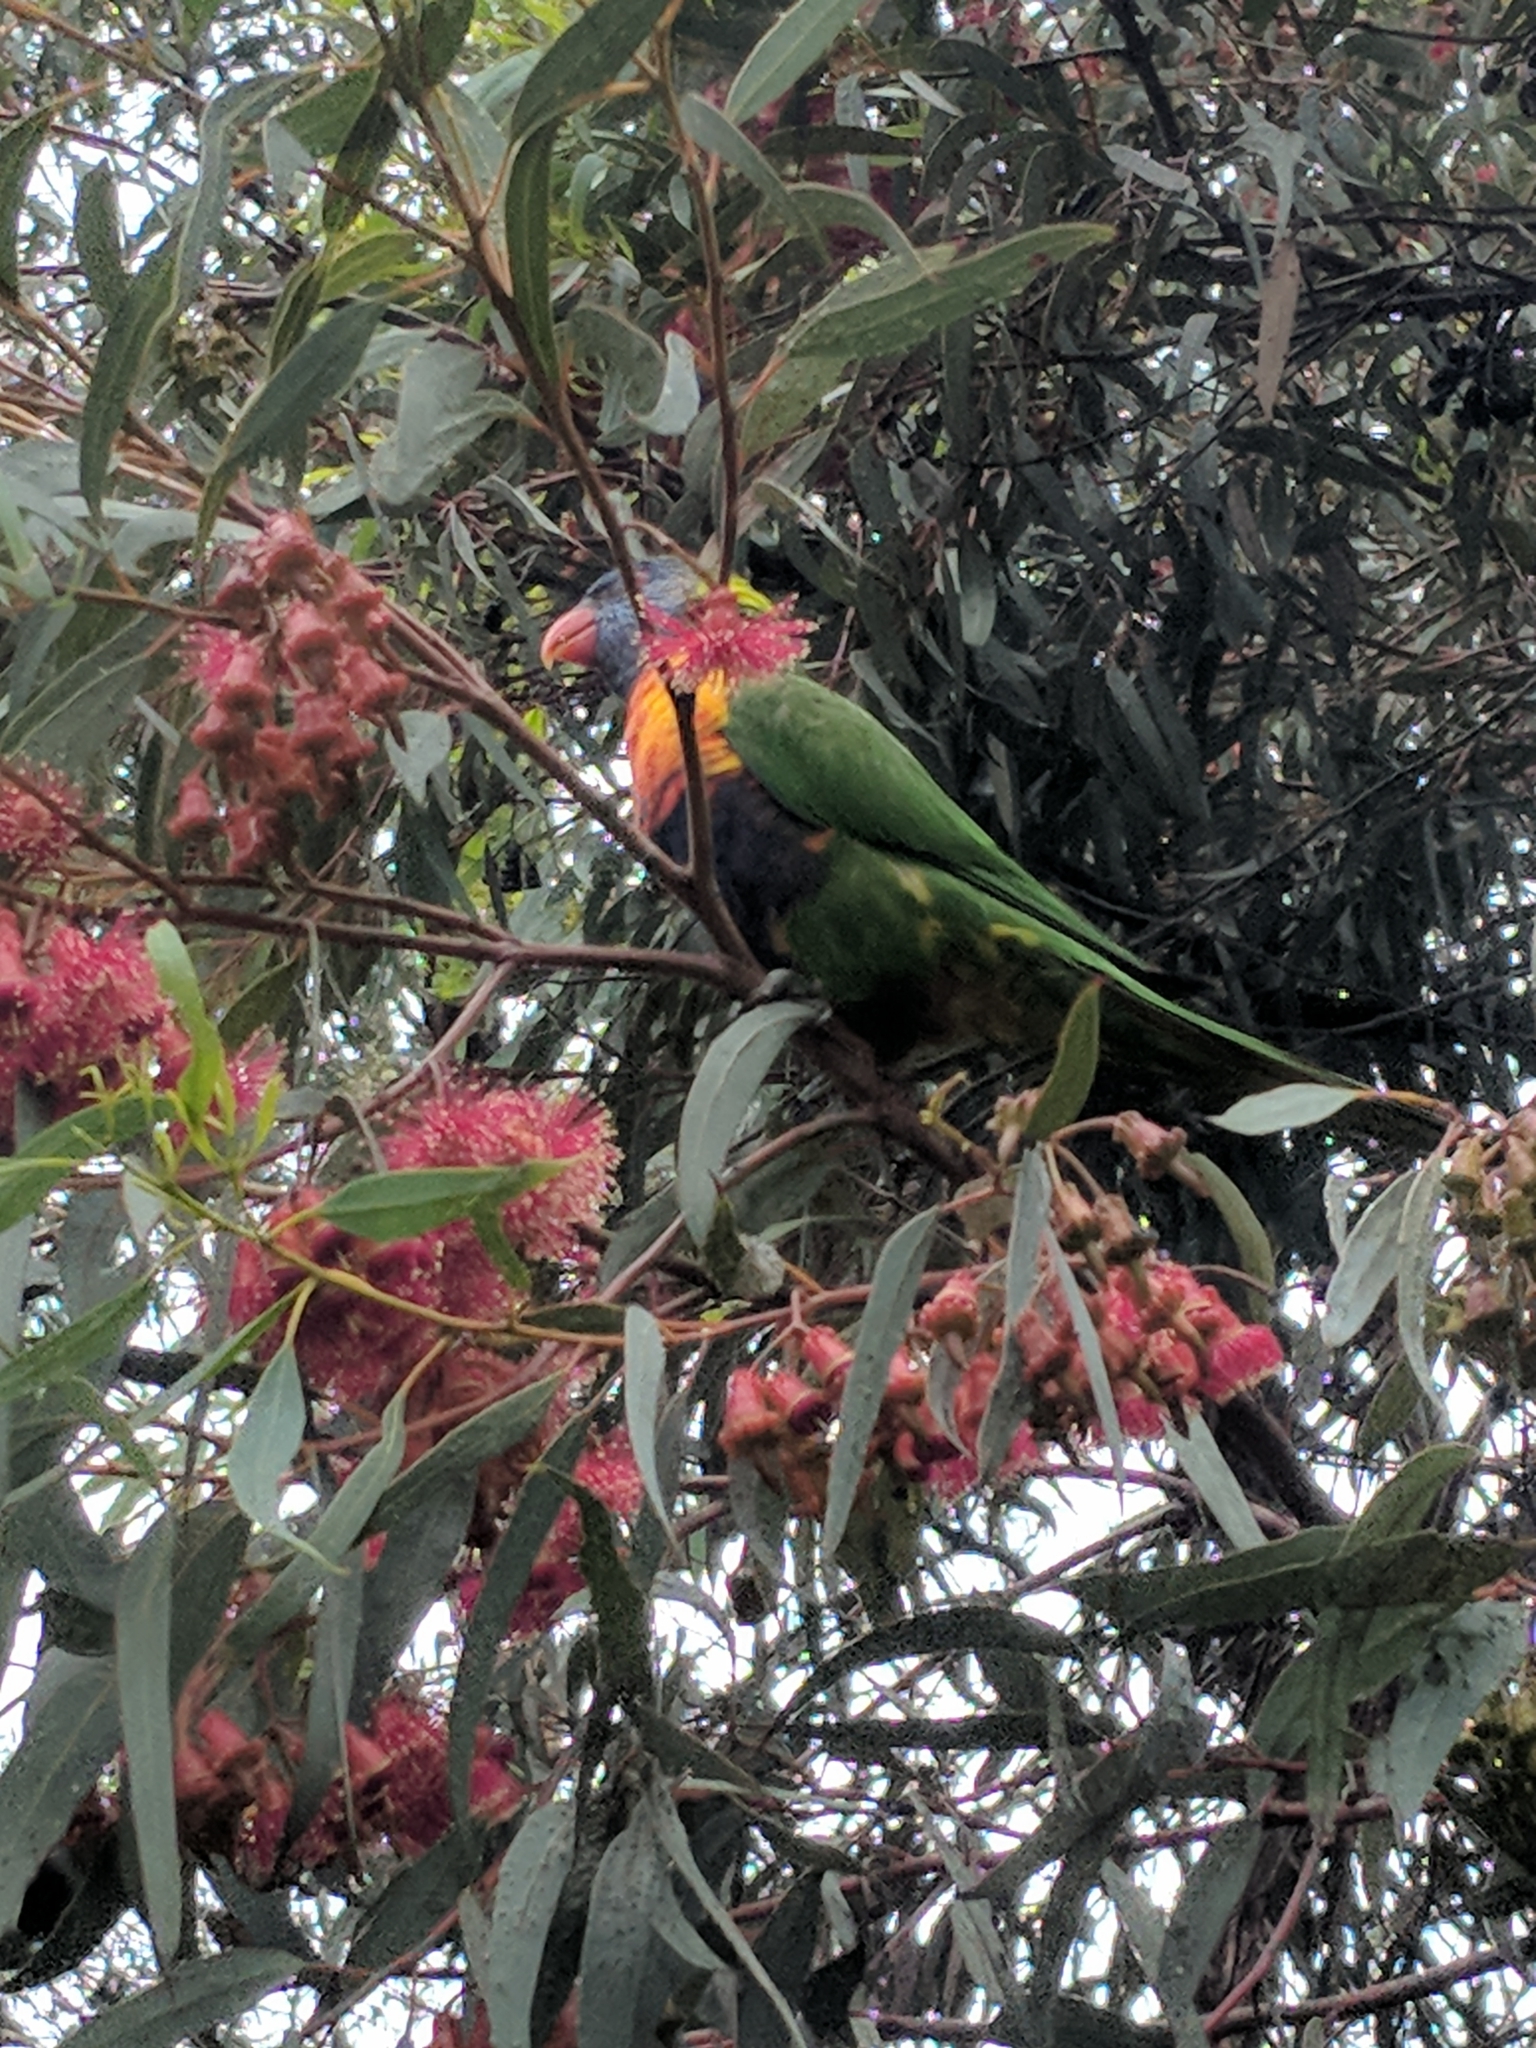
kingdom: Animalia
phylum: Chordata
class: Aves
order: Psittaciformes
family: Psittacidae
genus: Trichoglossus
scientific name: Trichoglossus haematodus
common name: Coconut lorikeet
